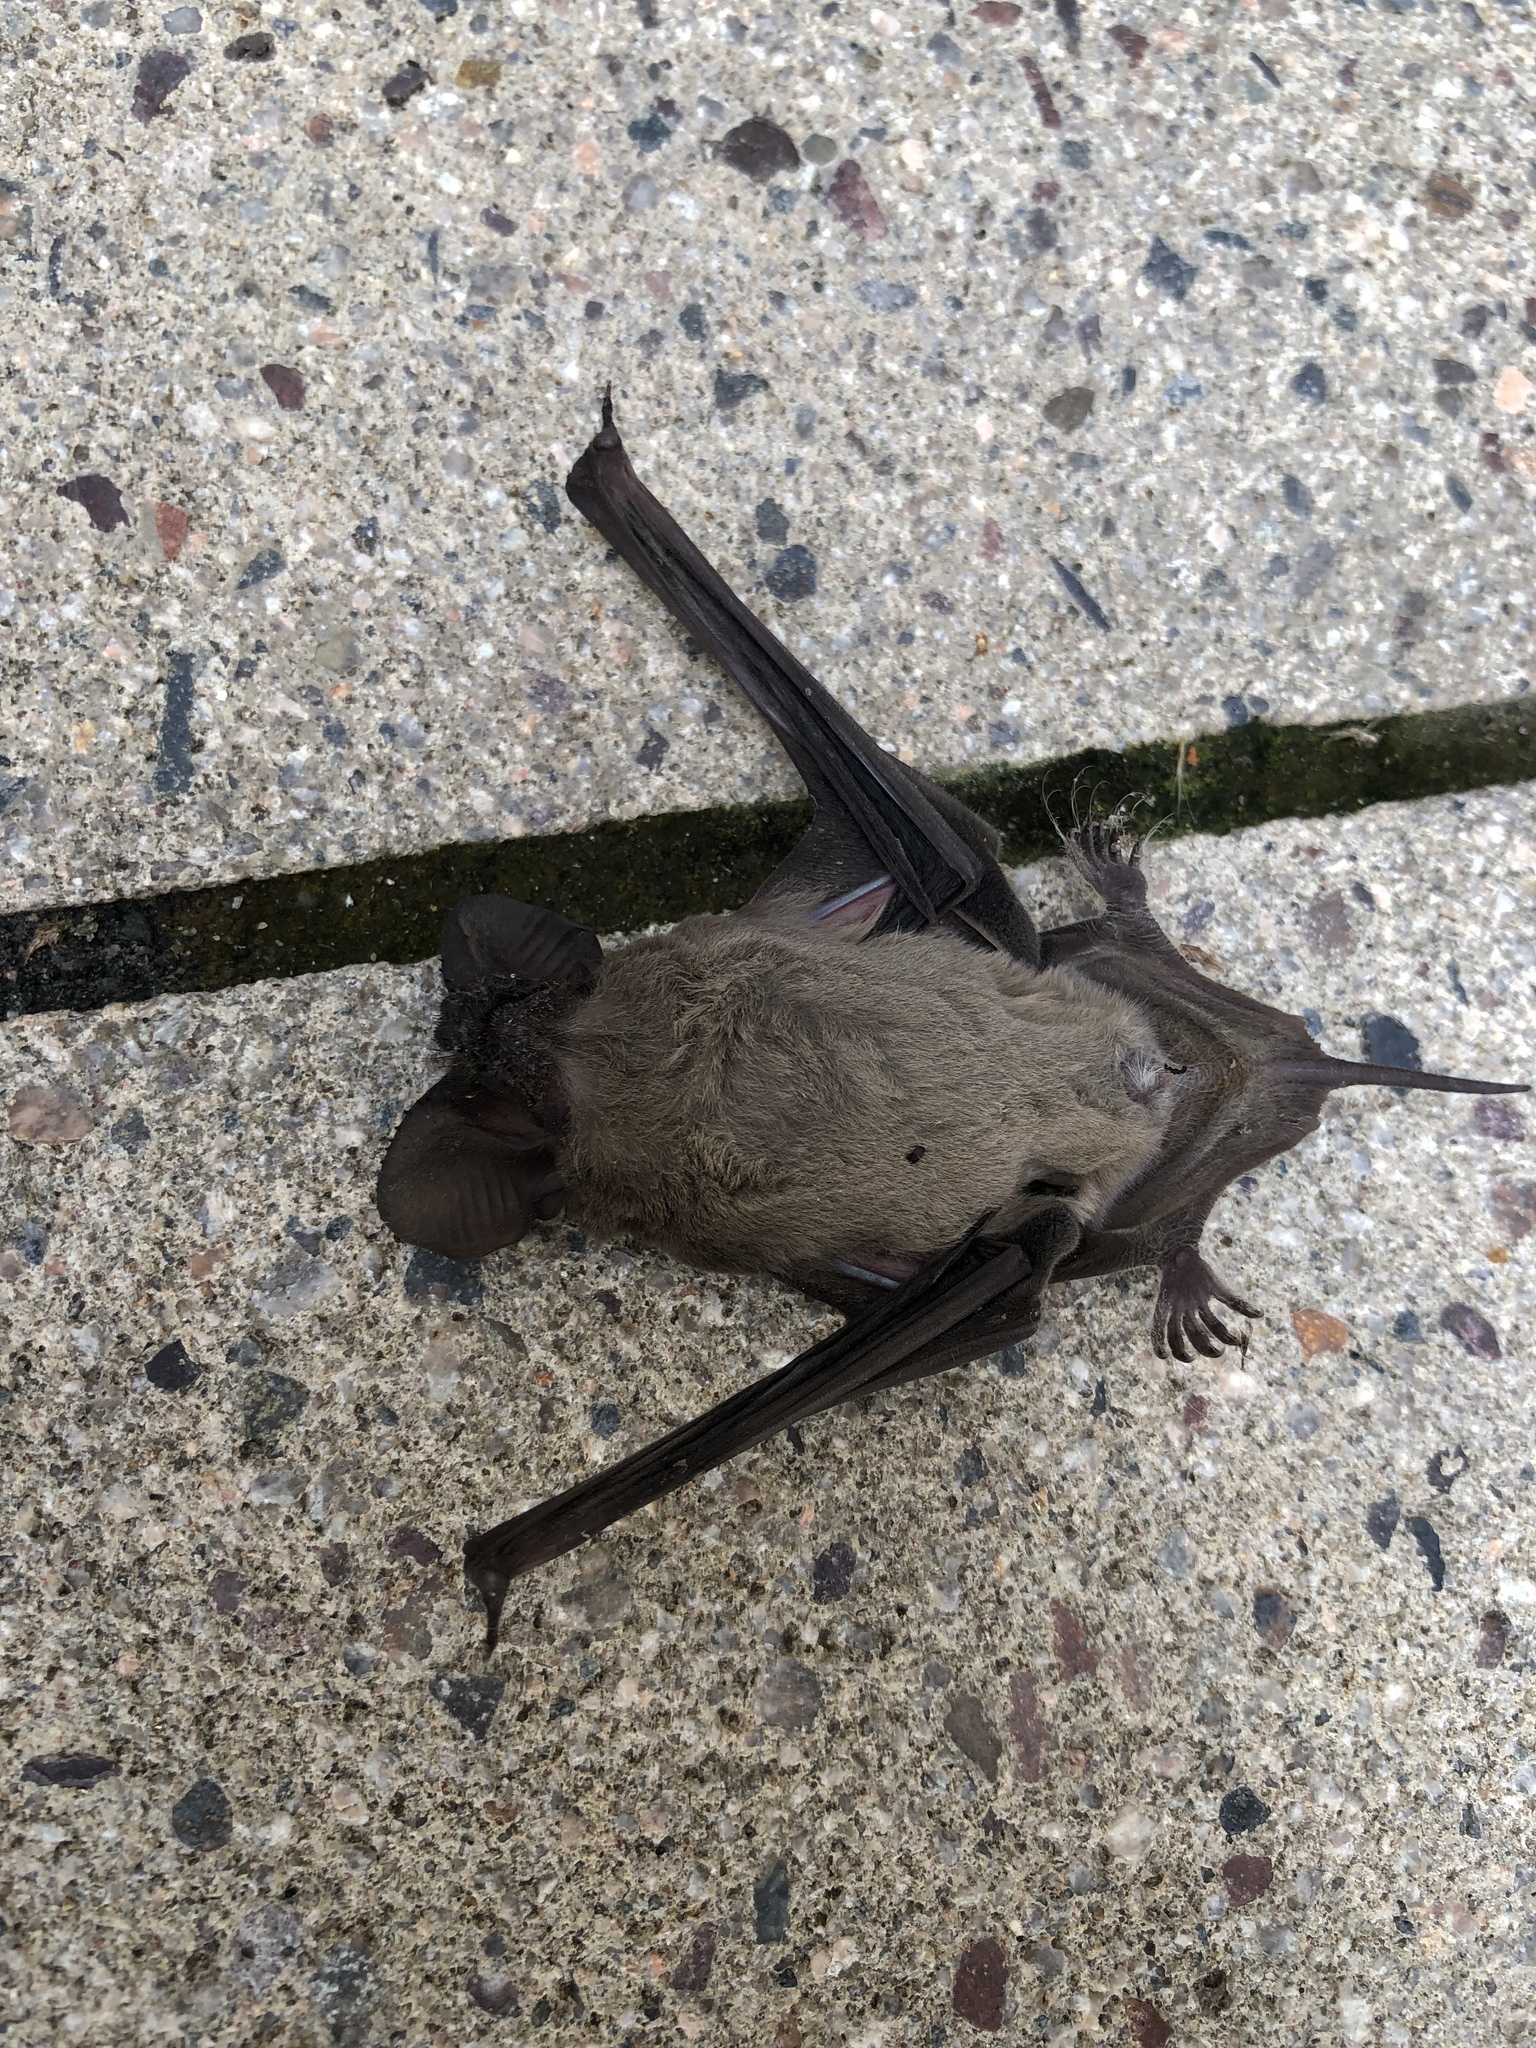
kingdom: Animalia
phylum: Chordata
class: Mammalia
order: Chiroptera
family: Molossidae
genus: Tadarida
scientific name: Tadarida brasiliensis
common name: Mexican free-tailed bat
